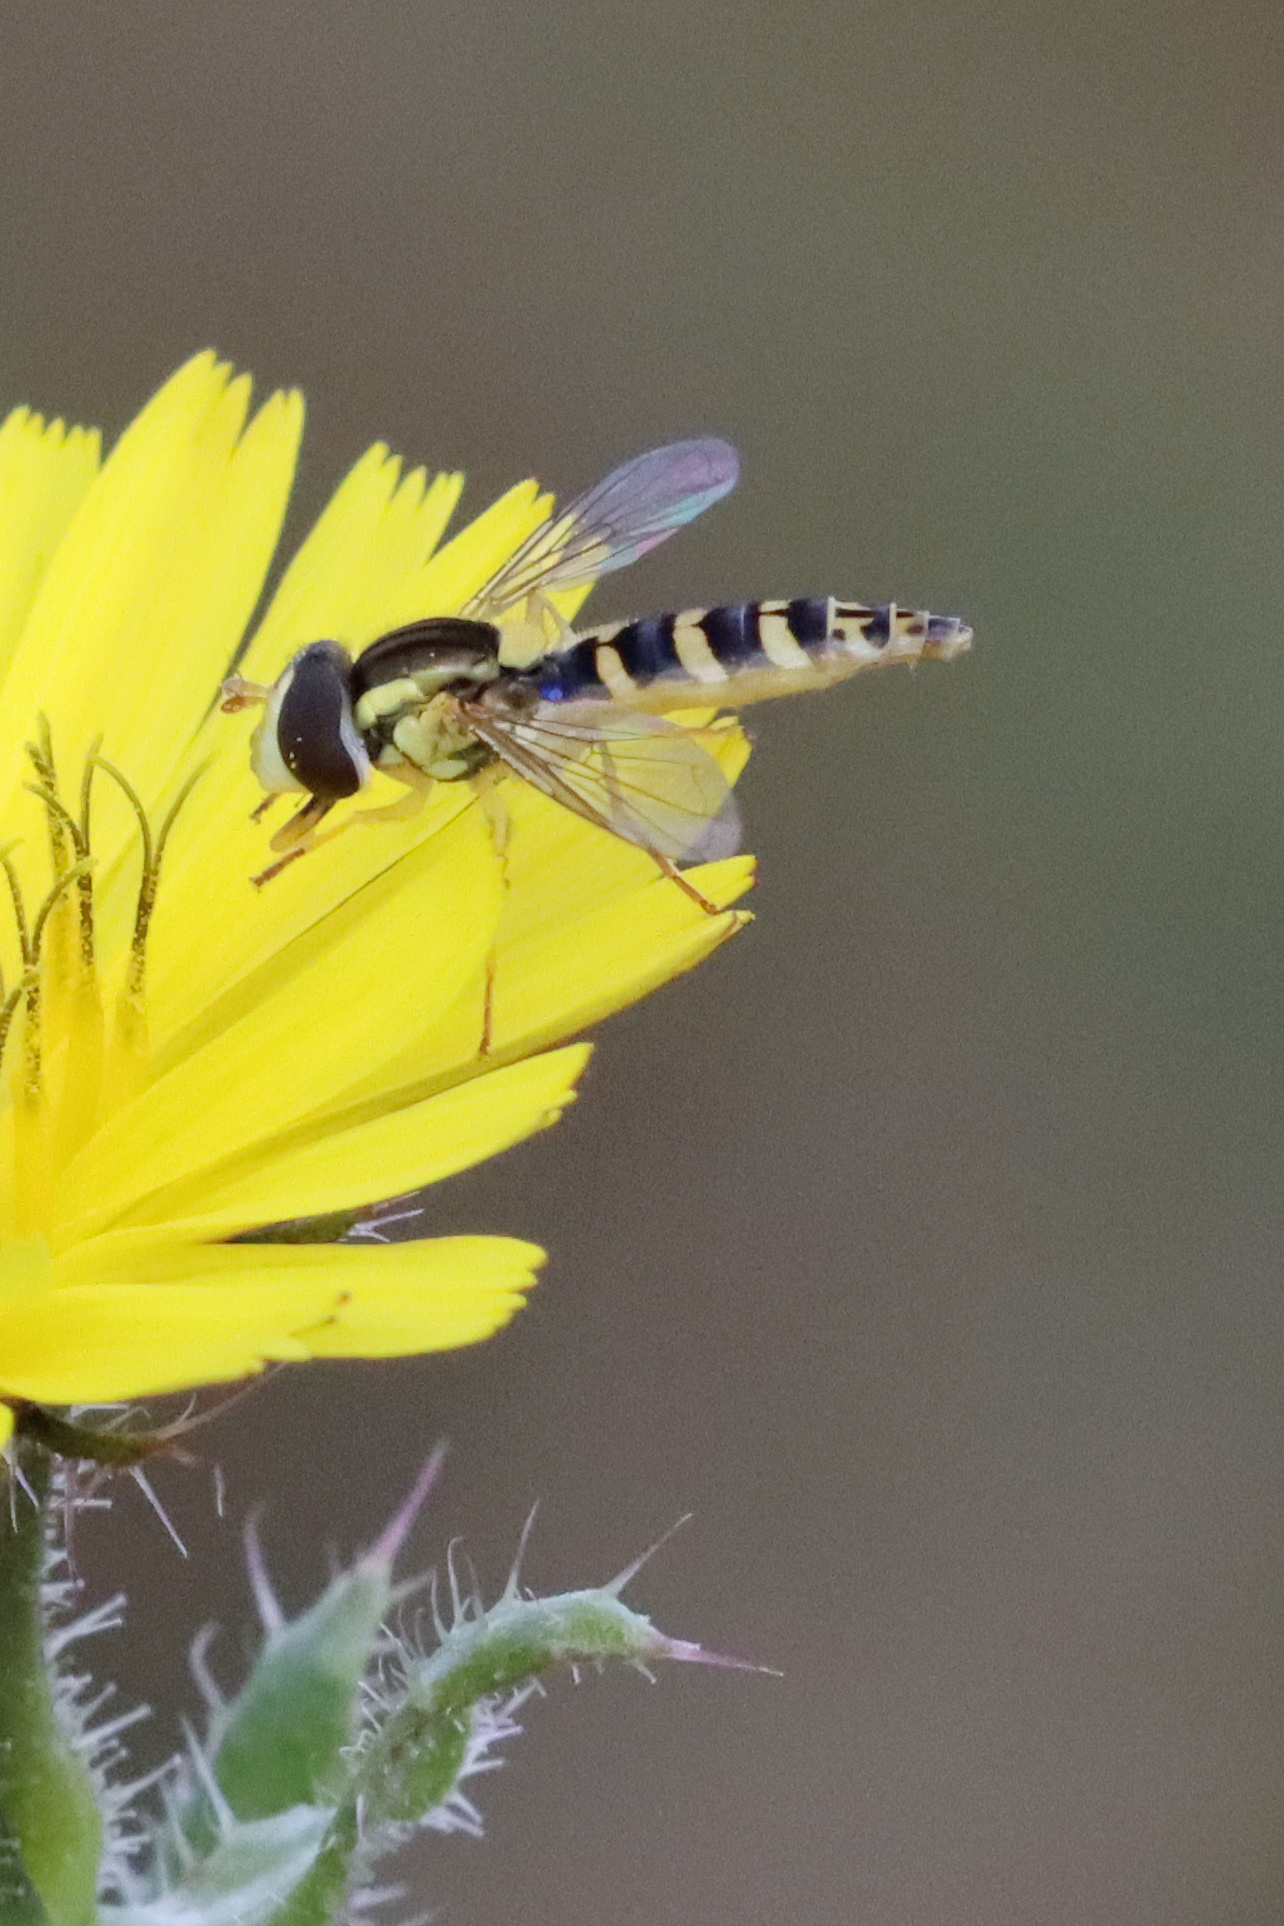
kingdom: Animalia
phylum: Arthropoda
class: Insecta
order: Diptera
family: Syrphidae
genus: Sphaerophoria
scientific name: Sphaerophoria
